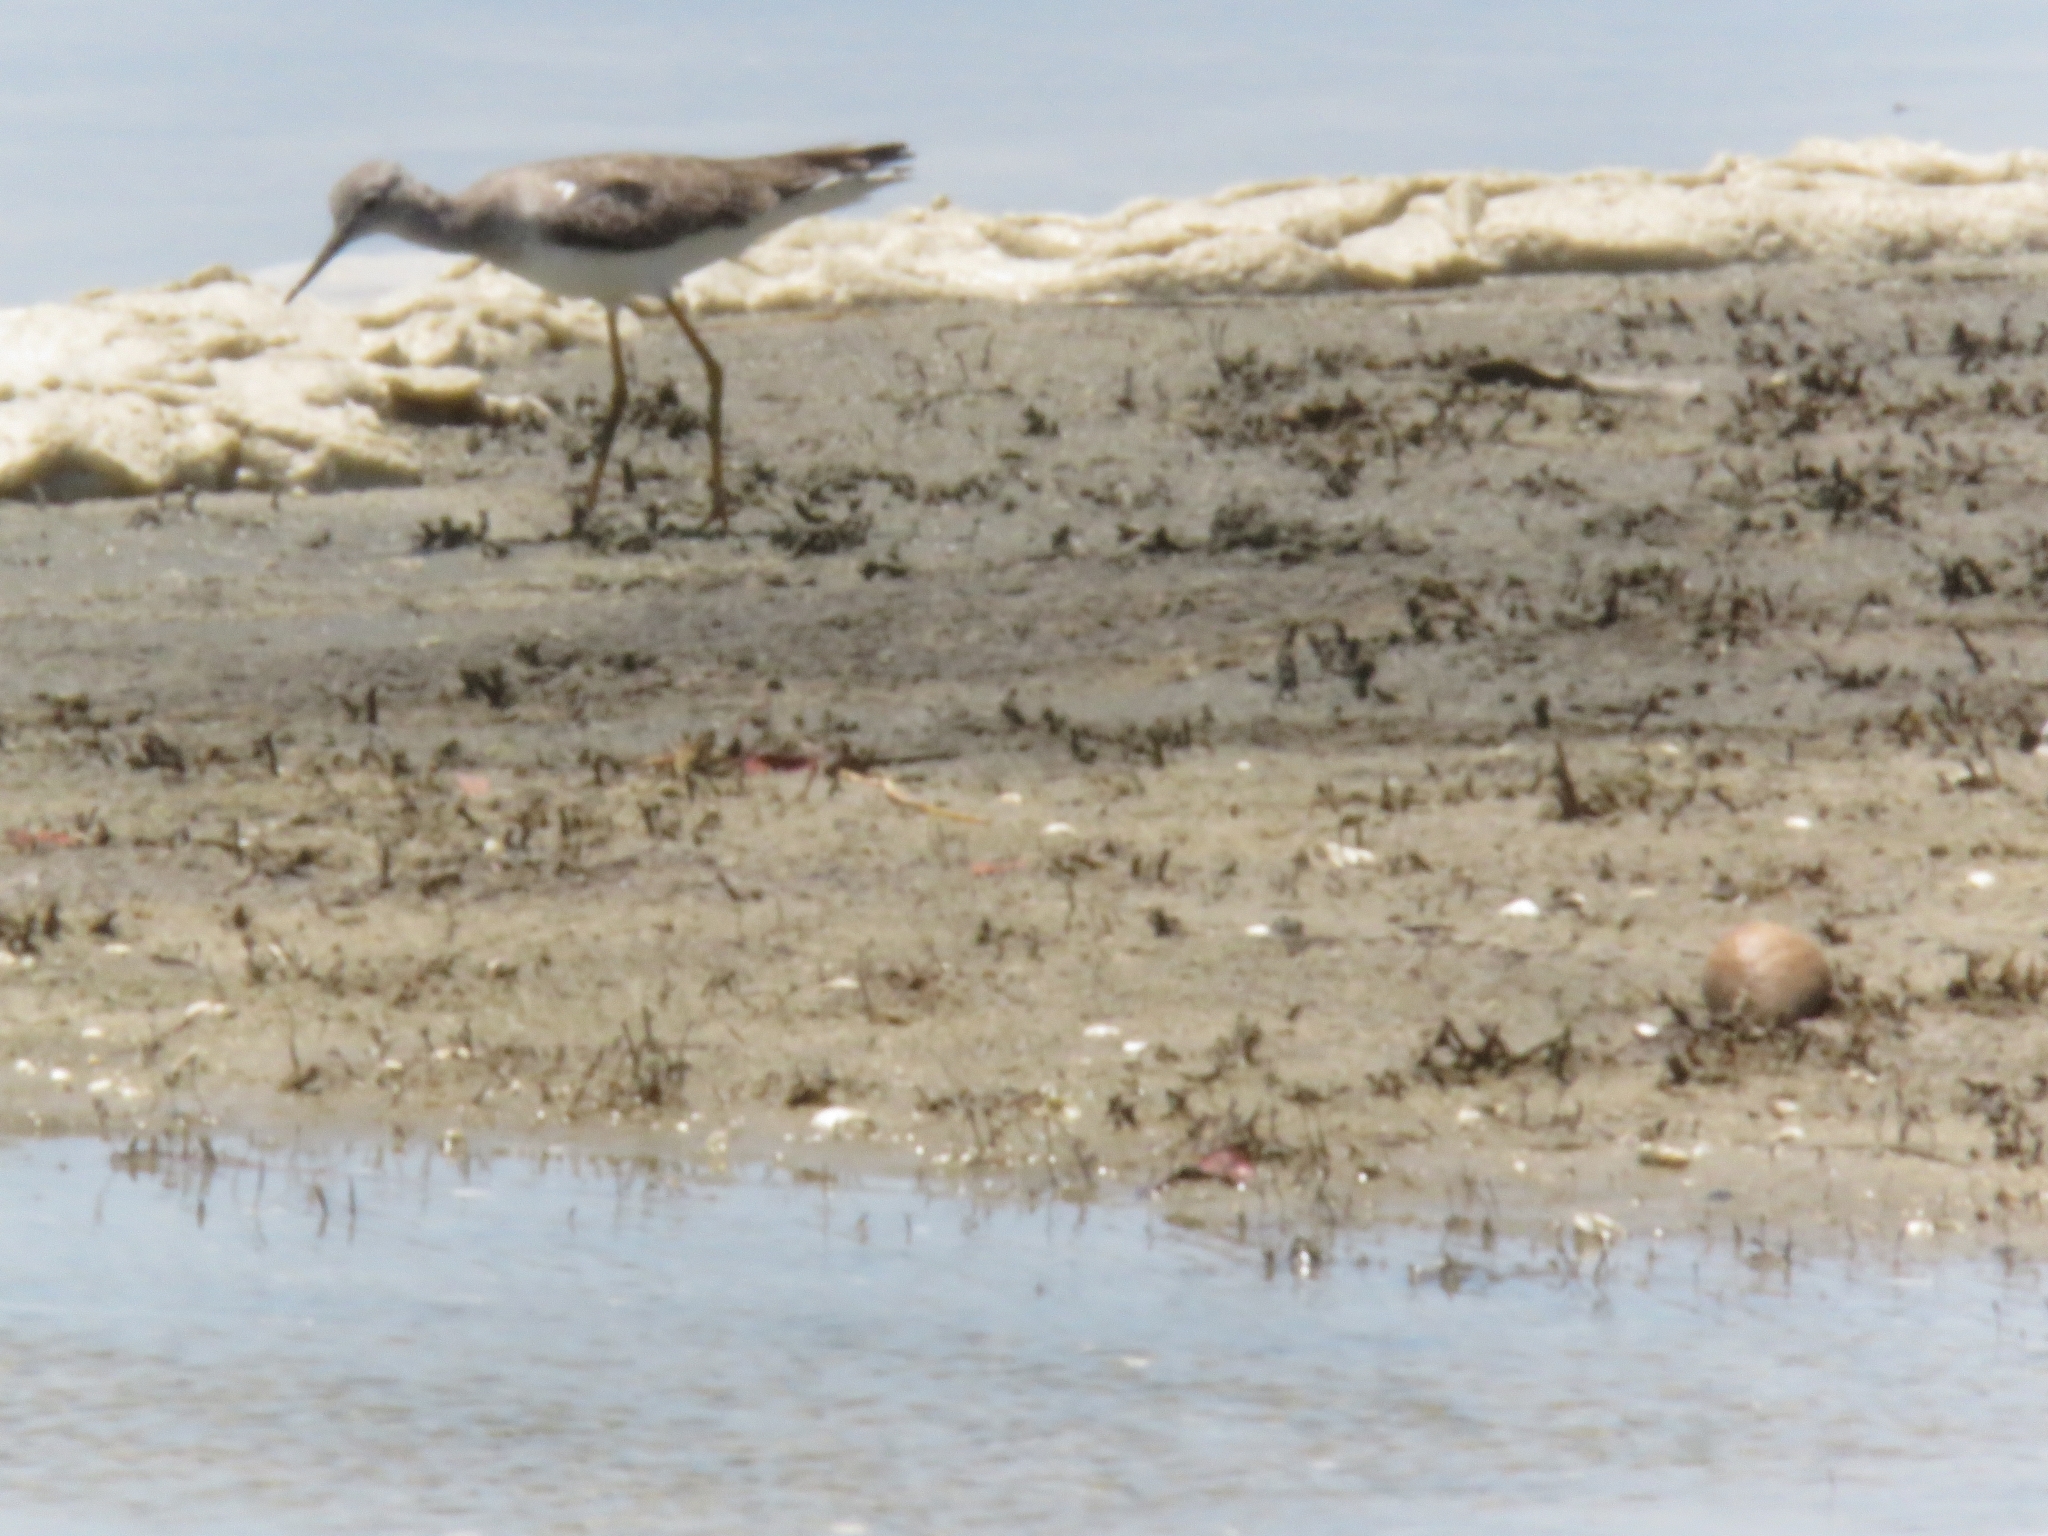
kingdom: Animalia
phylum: Chordata
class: Aves
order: Charadriiformes
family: Scolopacidae
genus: Tringa
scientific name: Tringa flavipes
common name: Lesser yellowlegs
